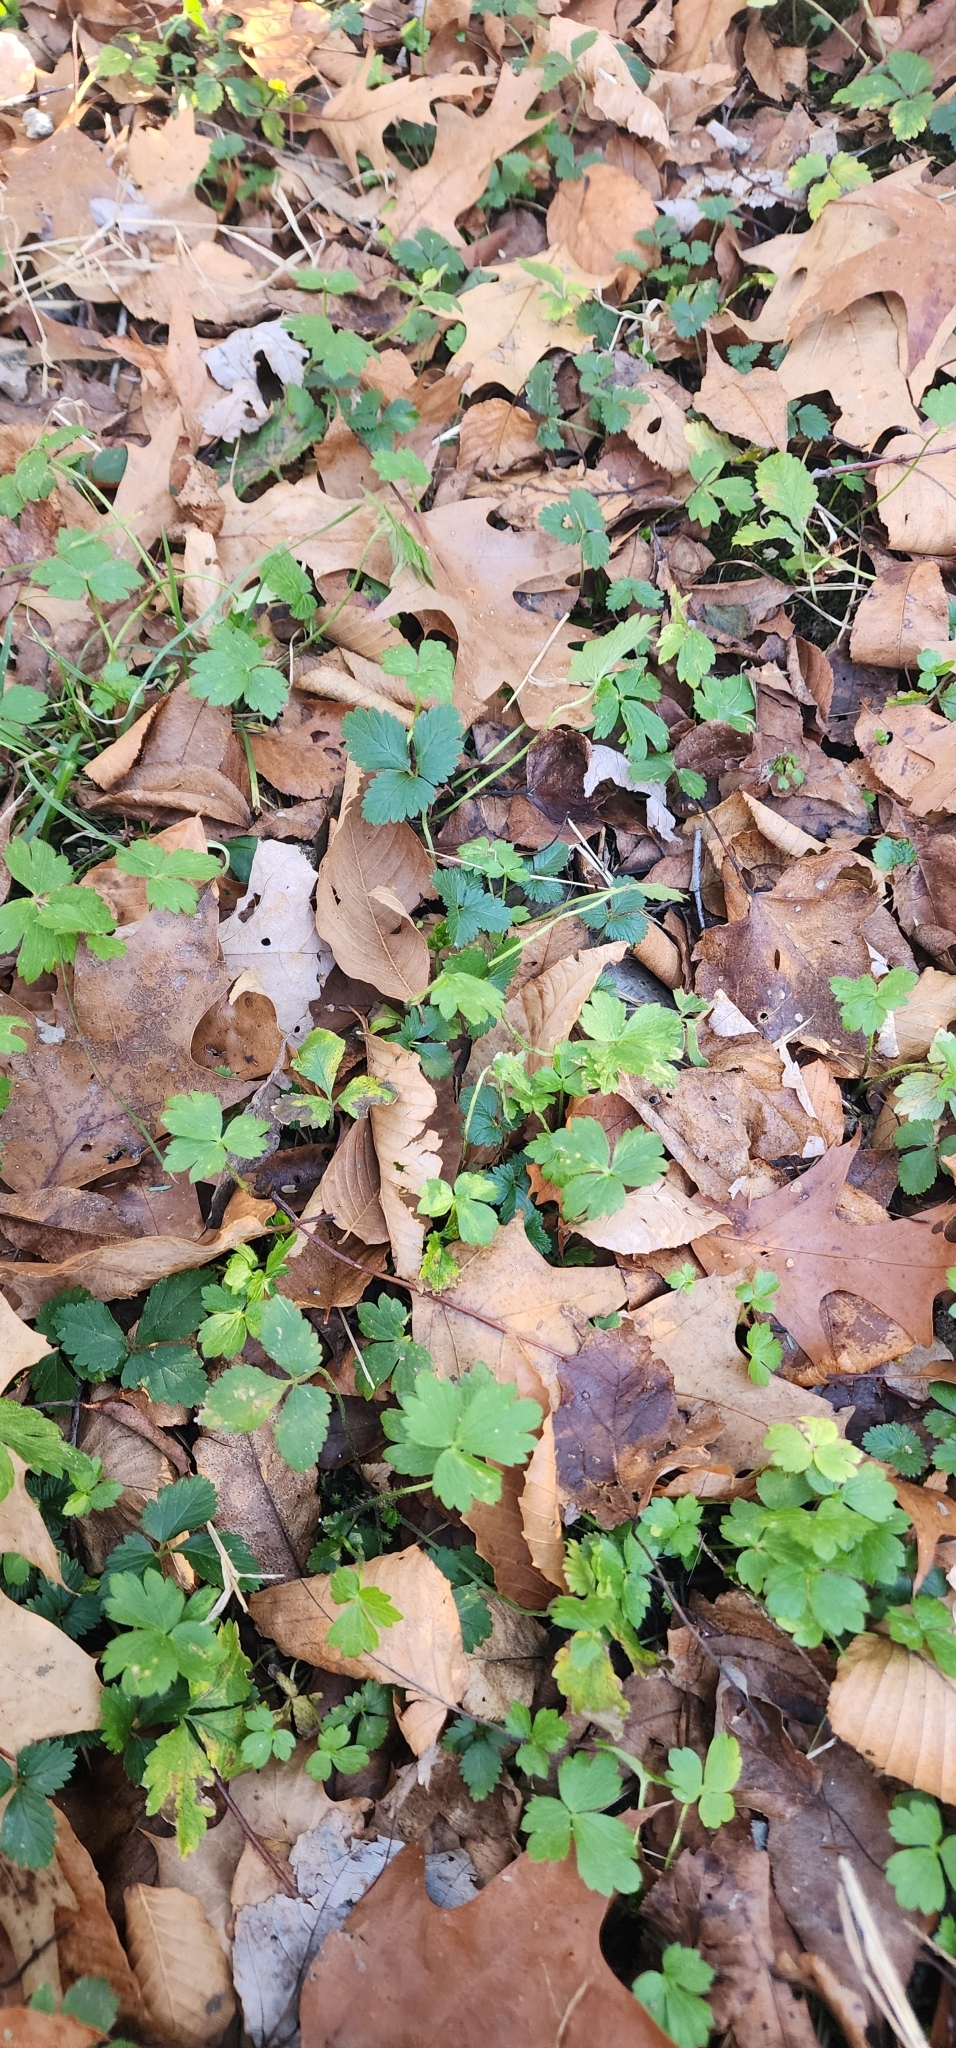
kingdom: Plantae
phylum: Tracheophyta
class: Magnoliopsida
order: Ranunculales
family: Ranunculaceae
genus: Ranunculus
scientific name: Ranunculus repens
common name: Creeping buttercup
